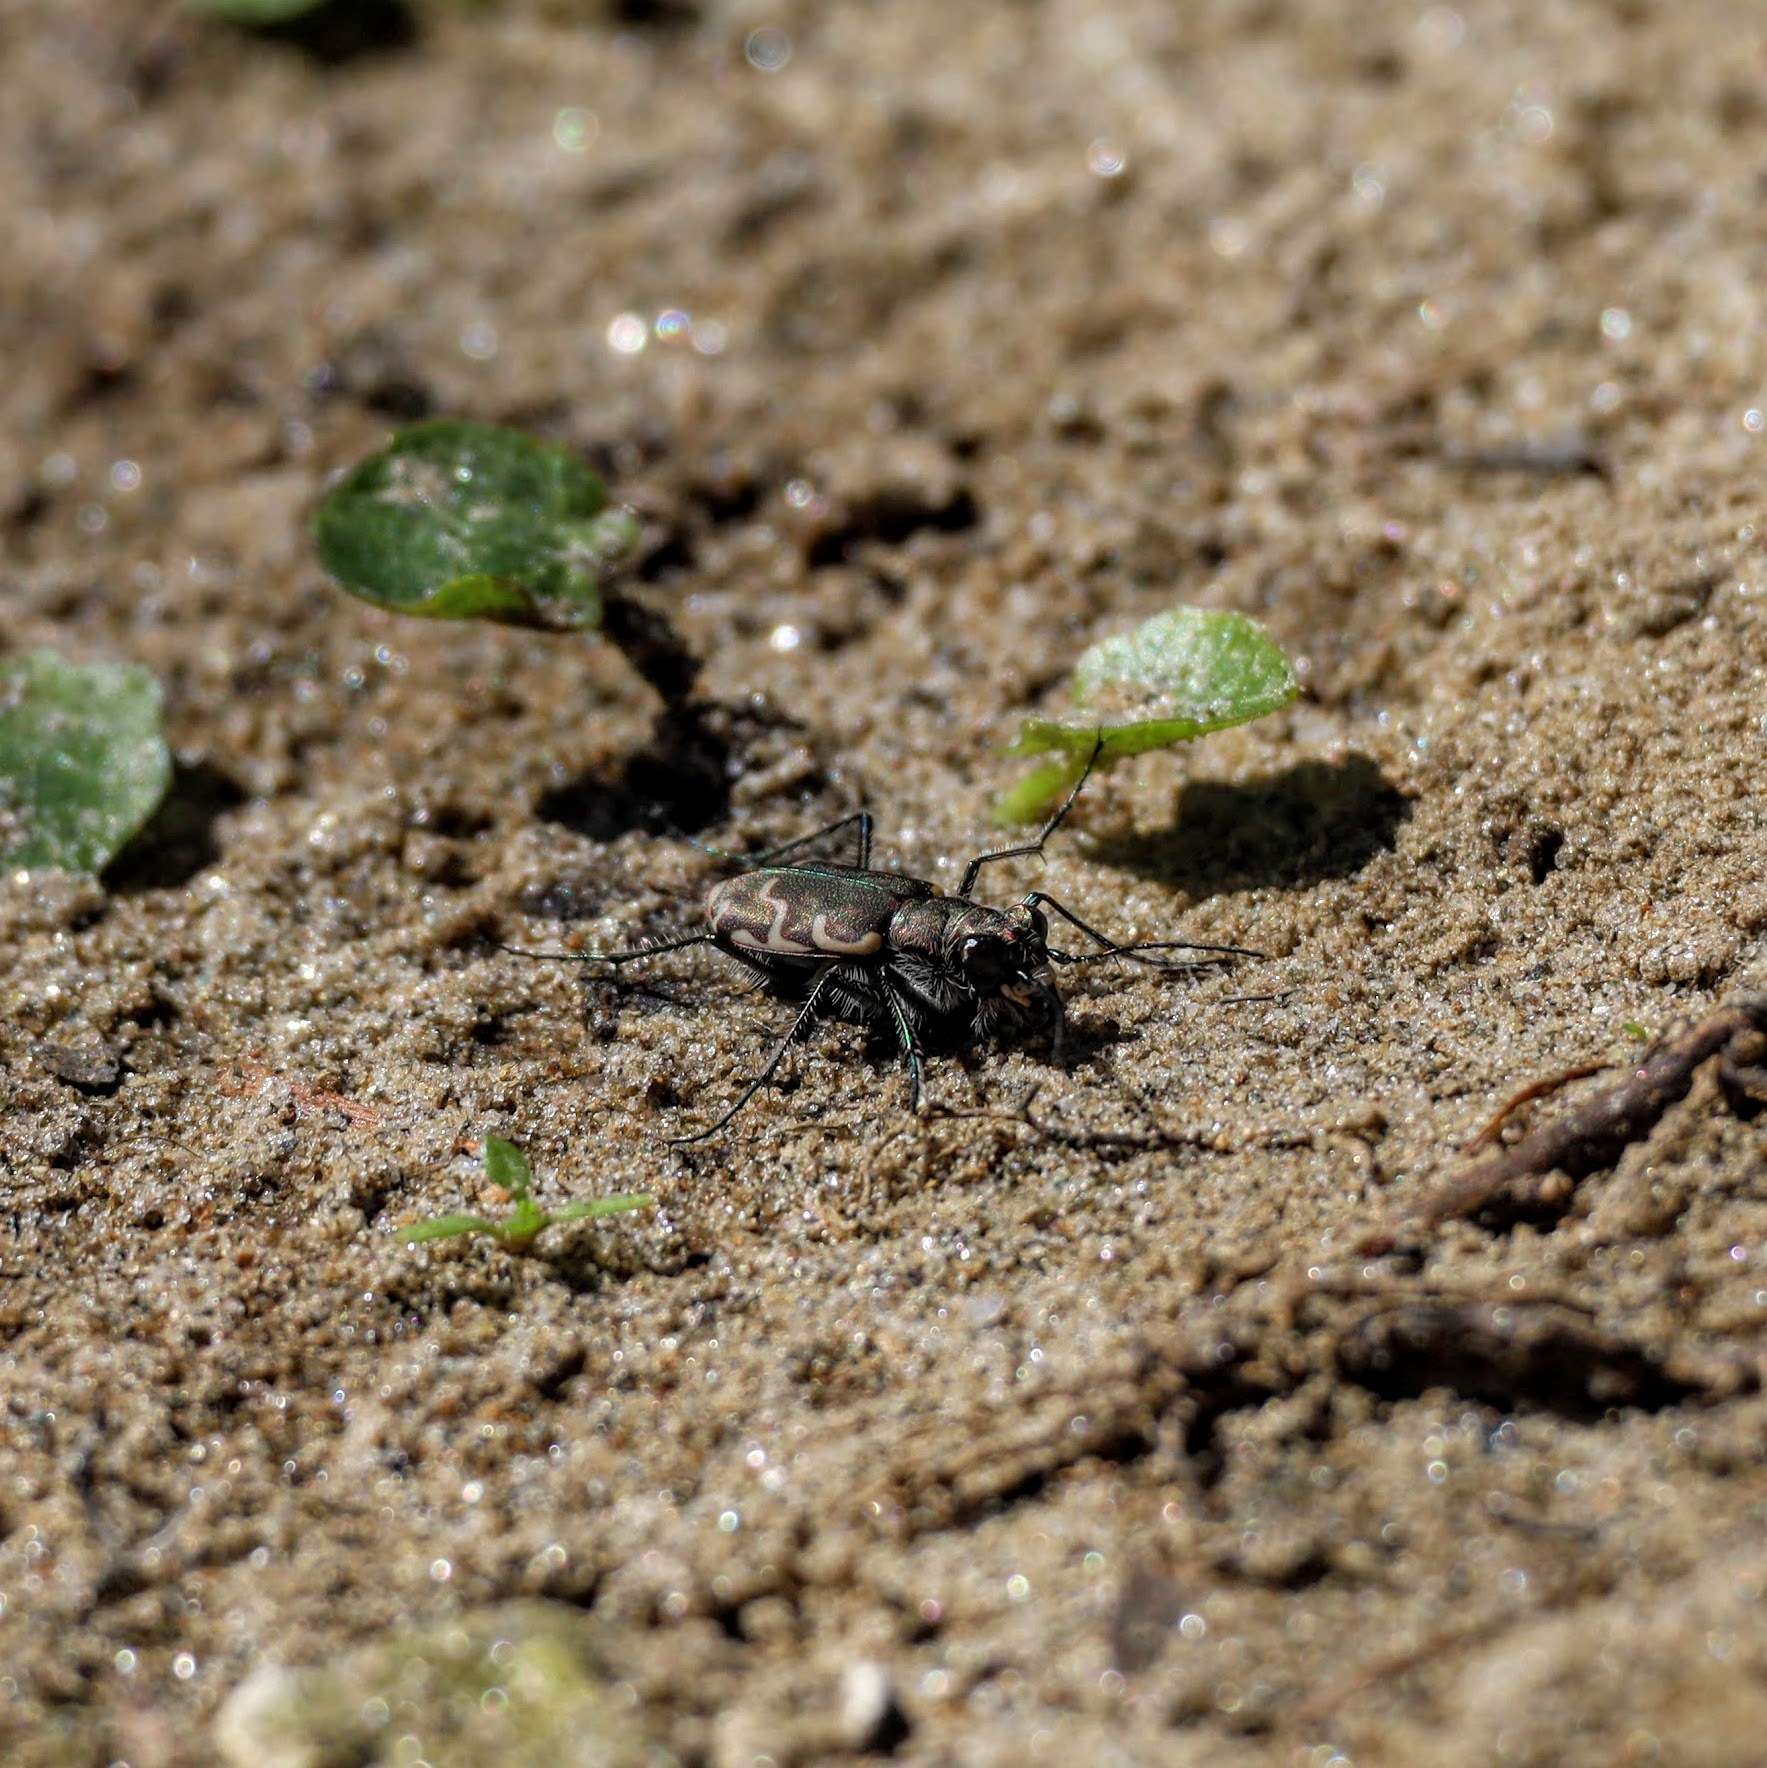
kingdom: Animalia
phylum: Arthropoda
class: Insecta
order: Coleoptera
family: Carabidae
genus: Cicindela
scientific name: Cicindela repanda
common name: Bronzed tiger beetle
